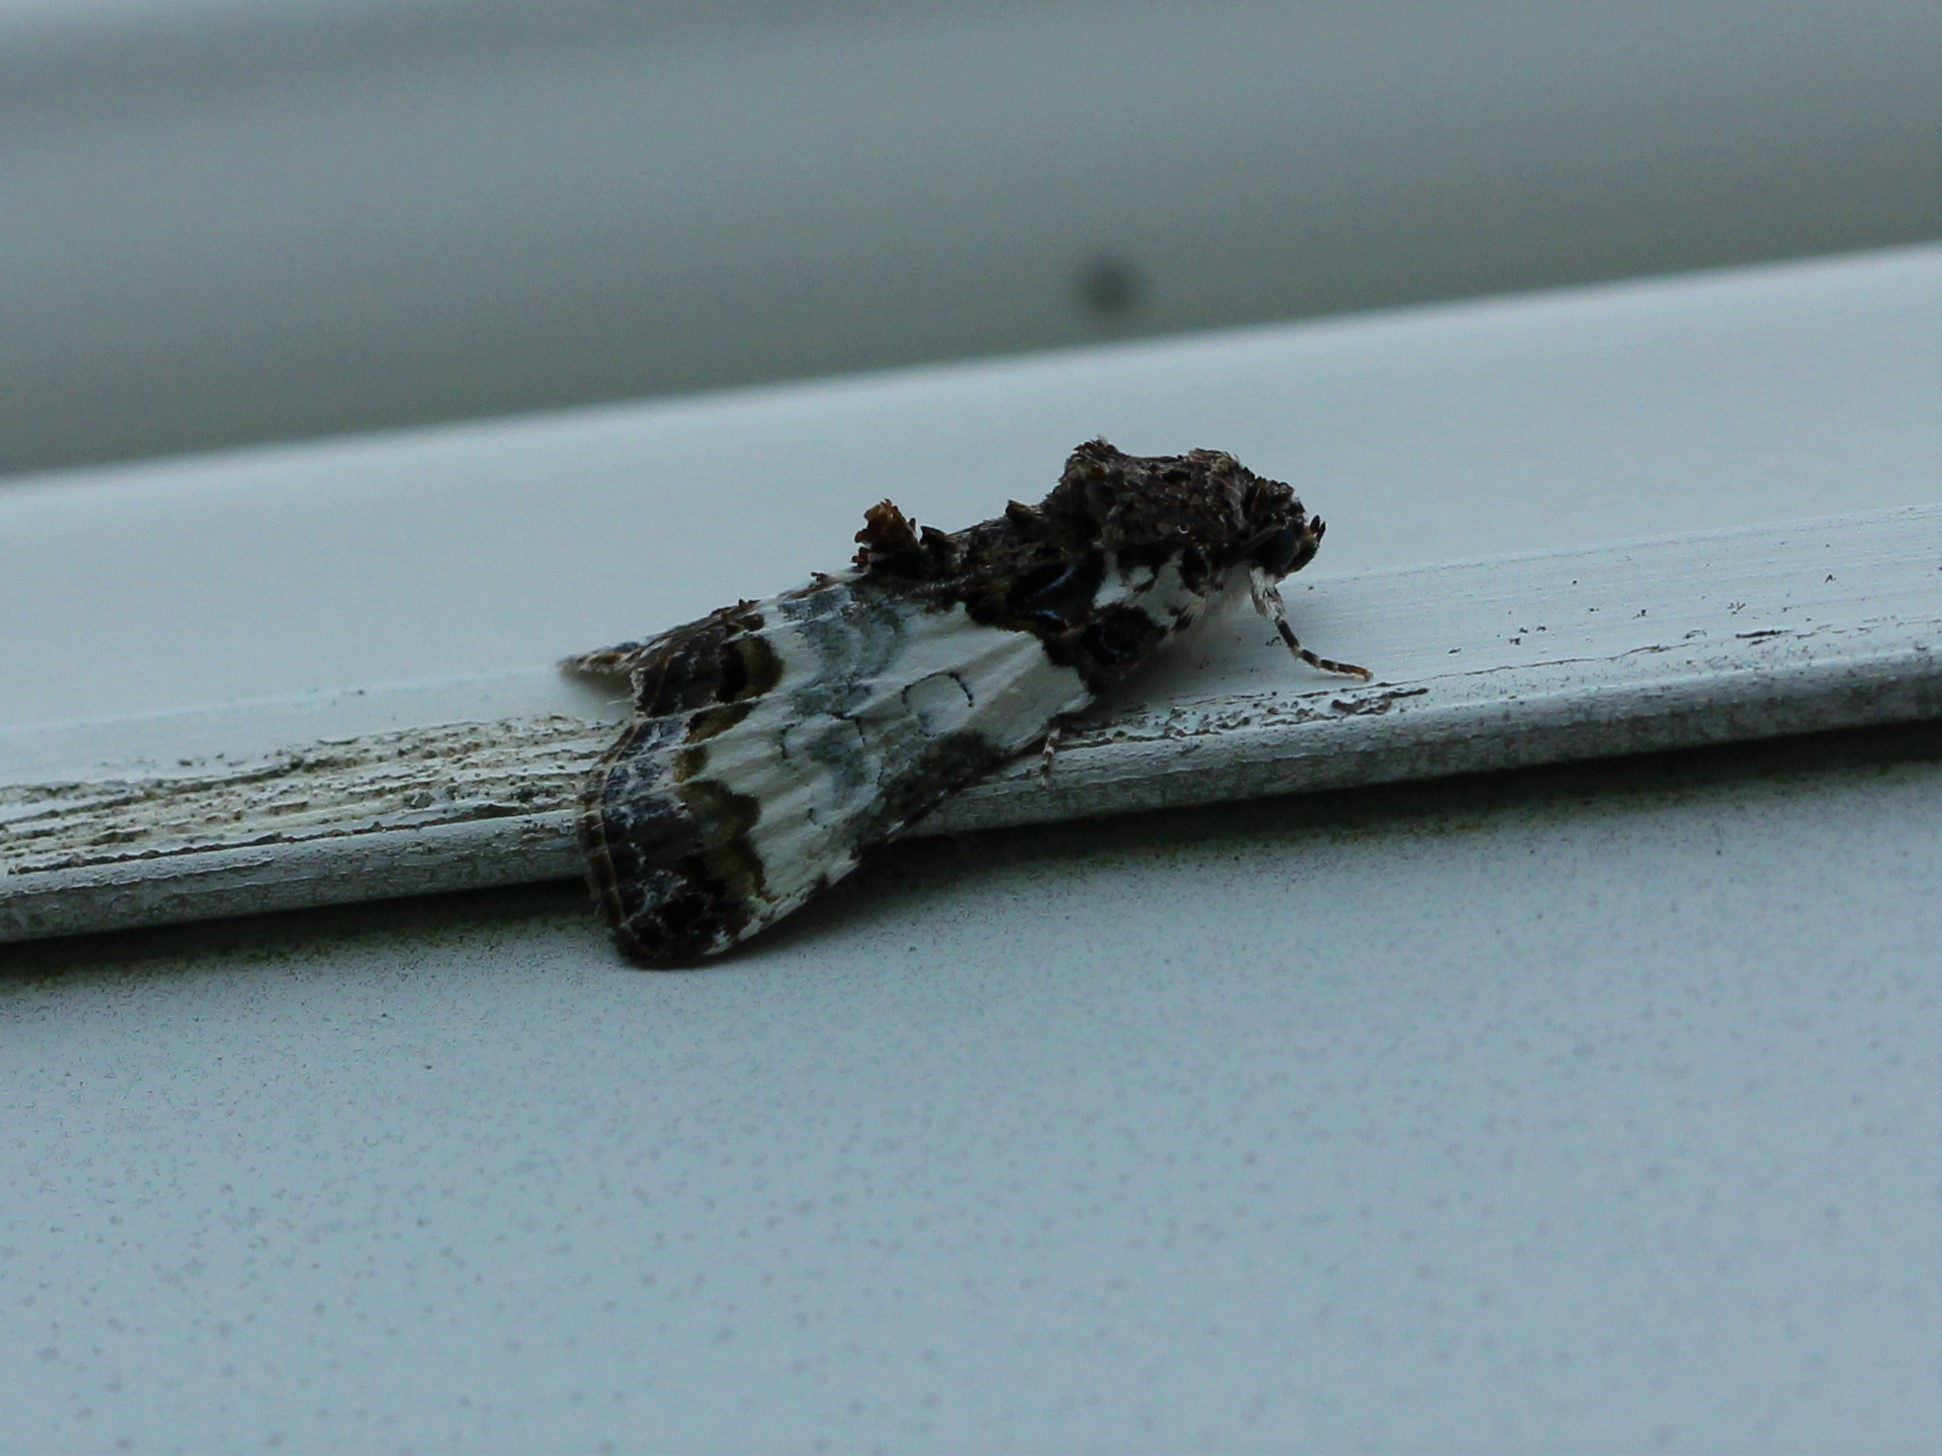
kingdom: Animalia
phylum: Arthropoda
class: Insecta
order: Lepidoptera
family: Noctuidae
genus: Cerma
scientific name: Cerma cerintha
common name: Tufted bird-dropping moth
